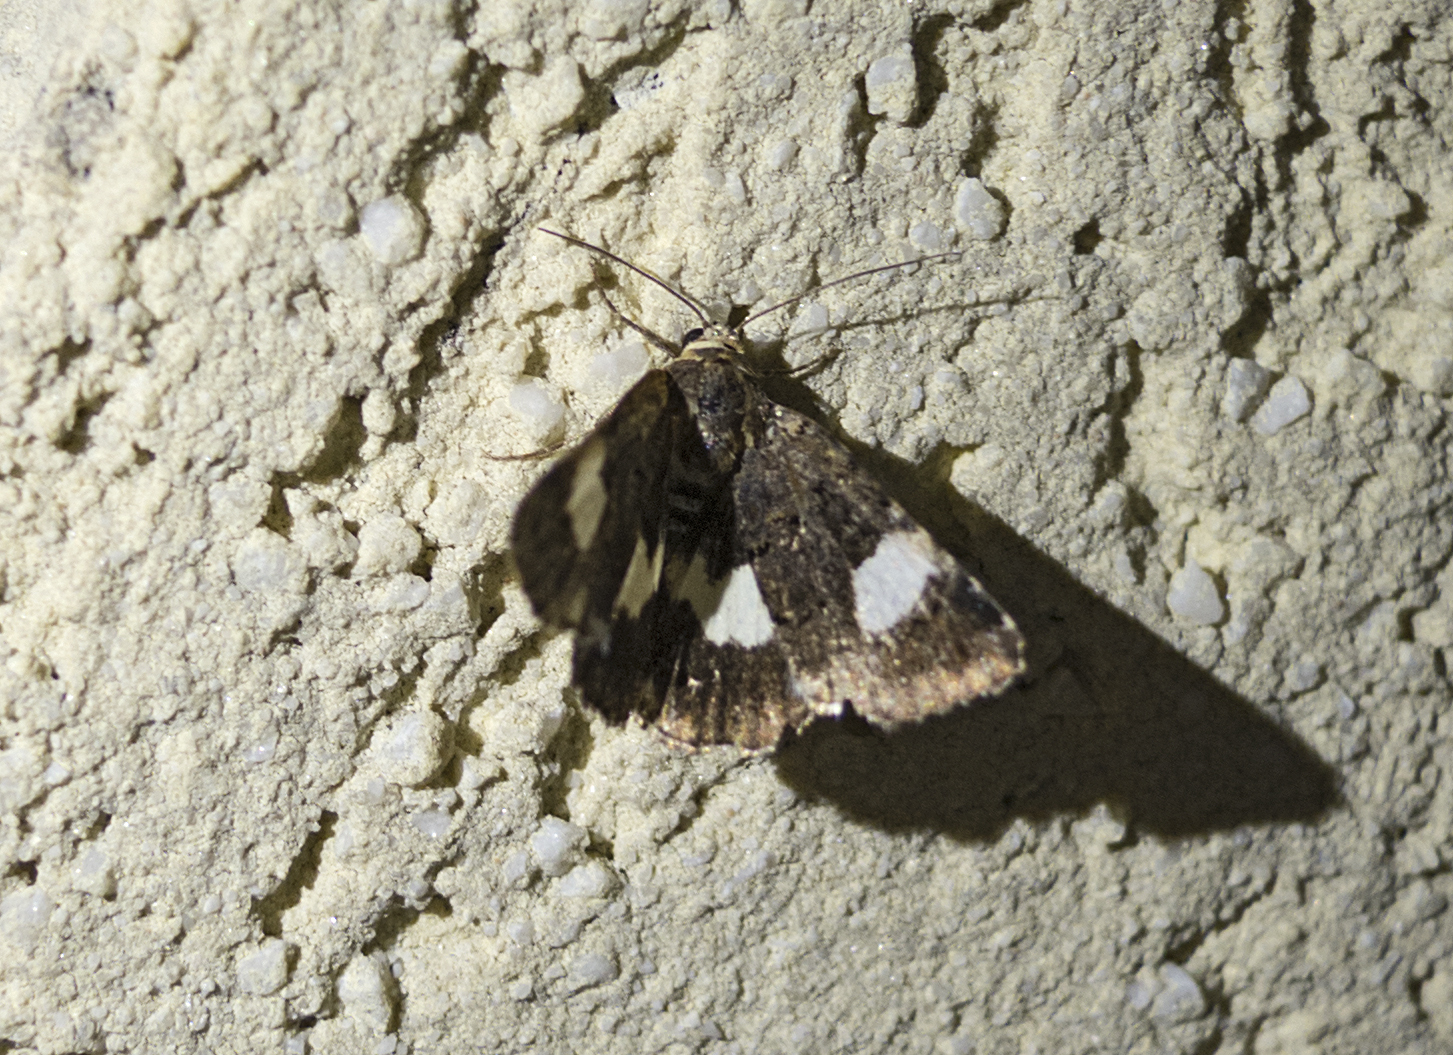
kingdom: Animalia
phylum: Arthropoda
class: Insecta
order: Lepidoptera
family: Erebidae
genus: Tyta
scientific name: Tyta luctuosa
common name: Four-spotted
